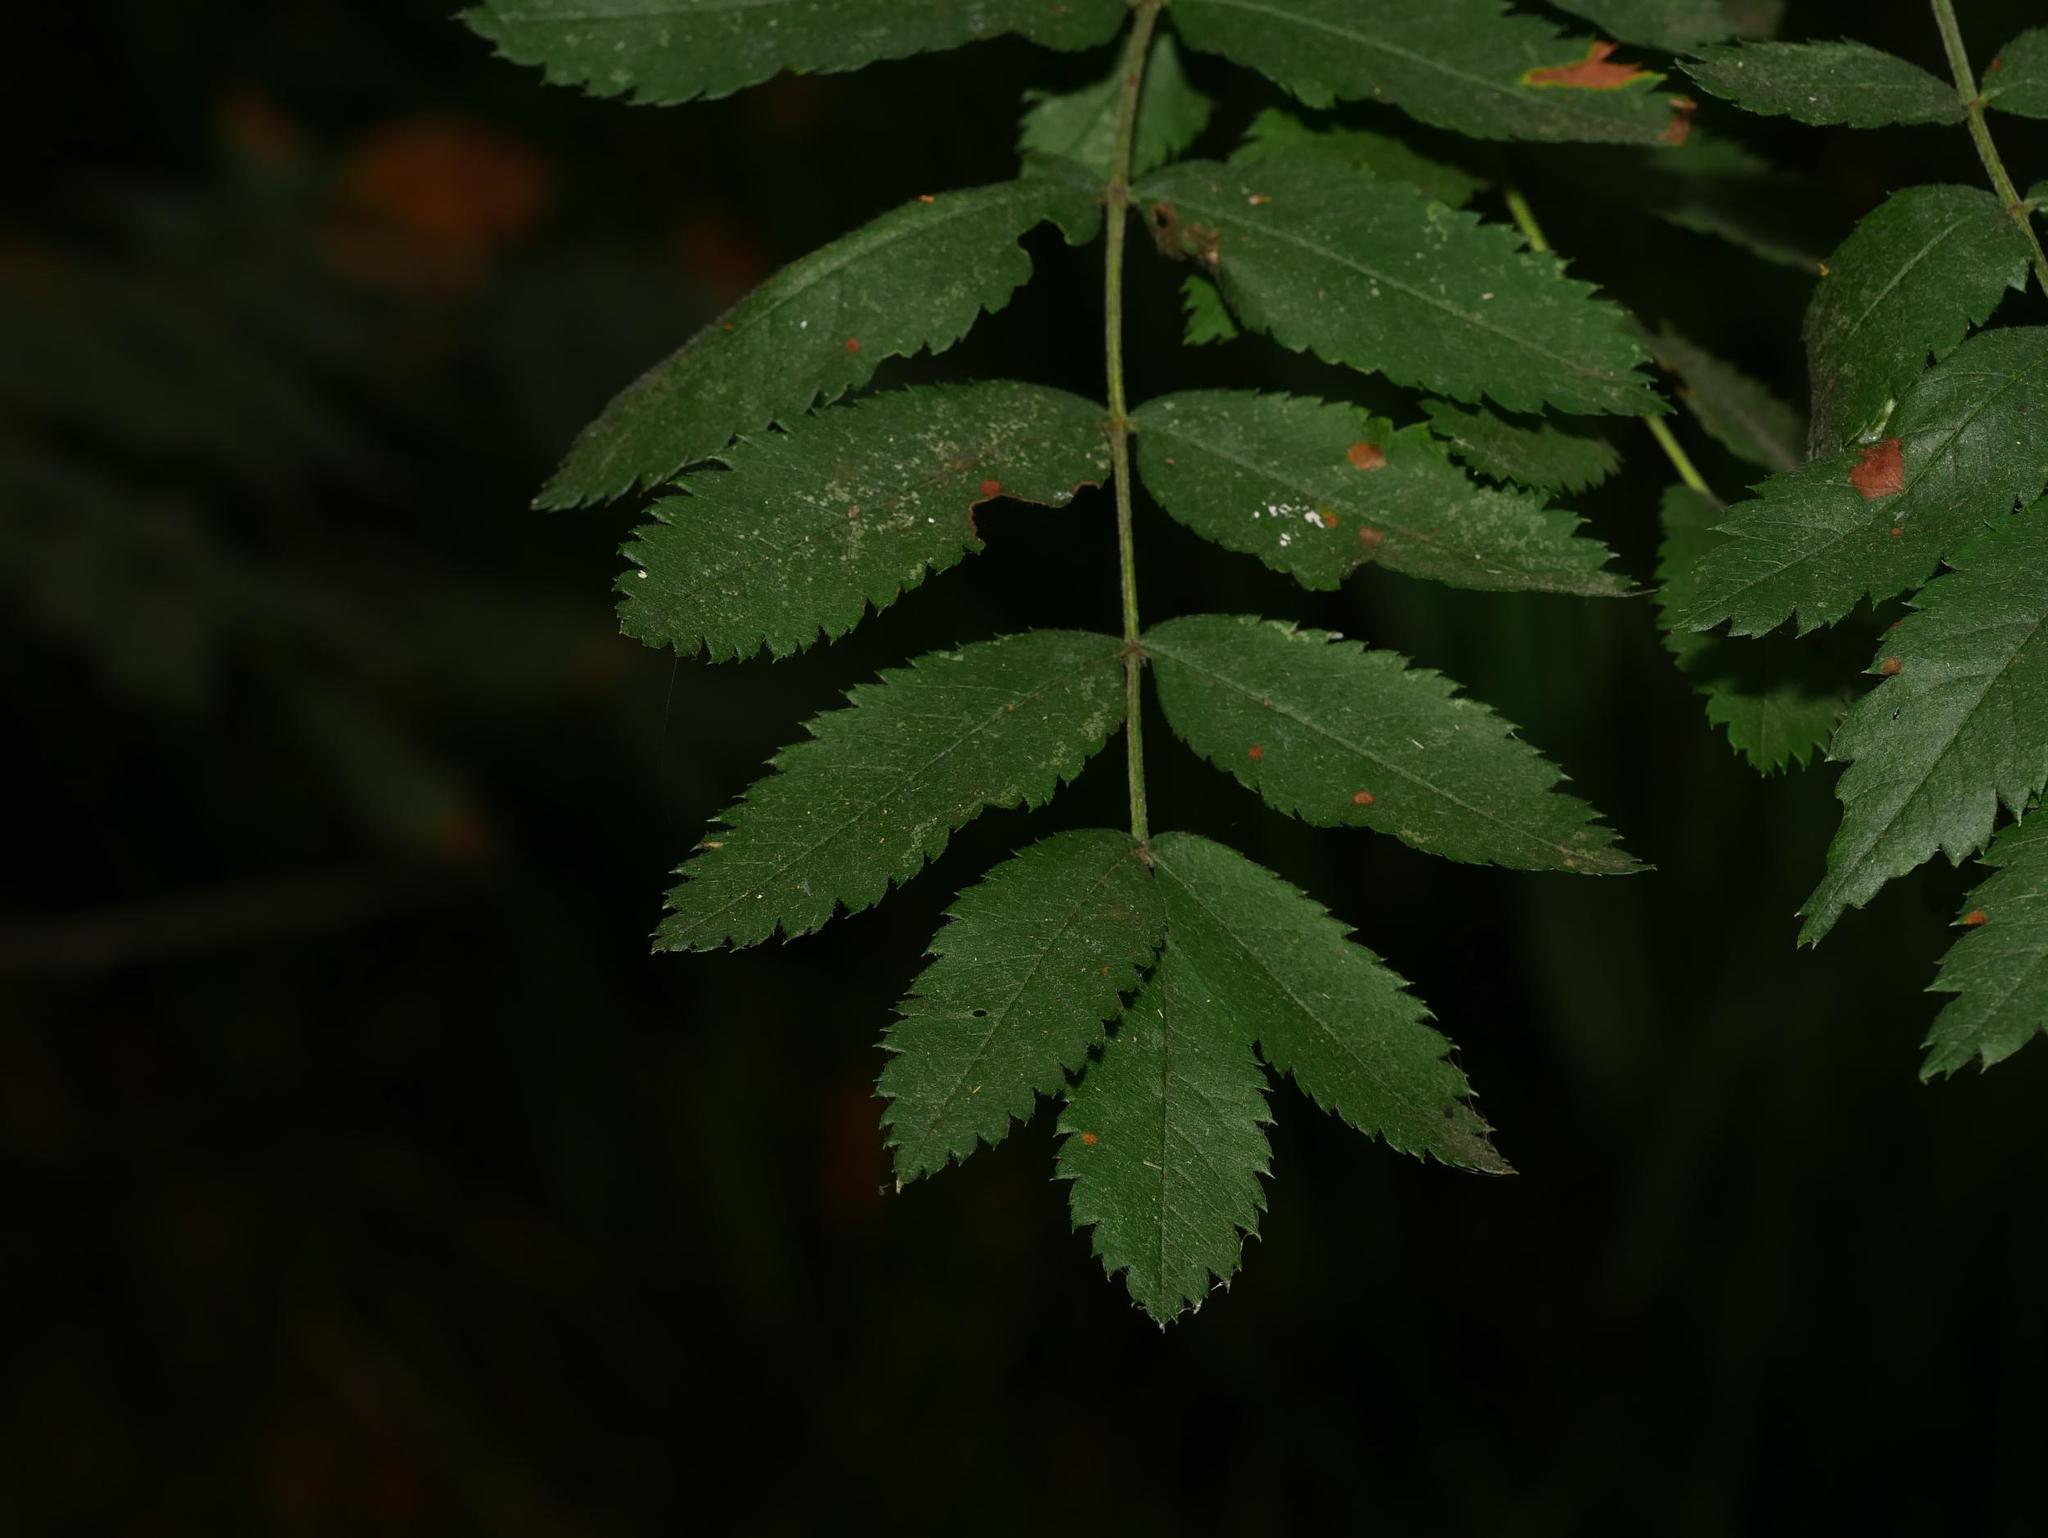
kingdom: Plantae
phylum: Tracheophyta
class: Magnoliopsida
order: Rosales
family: Rosaceae
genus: Sorbus
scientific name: Sorbus aucuparia
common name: Rowan
